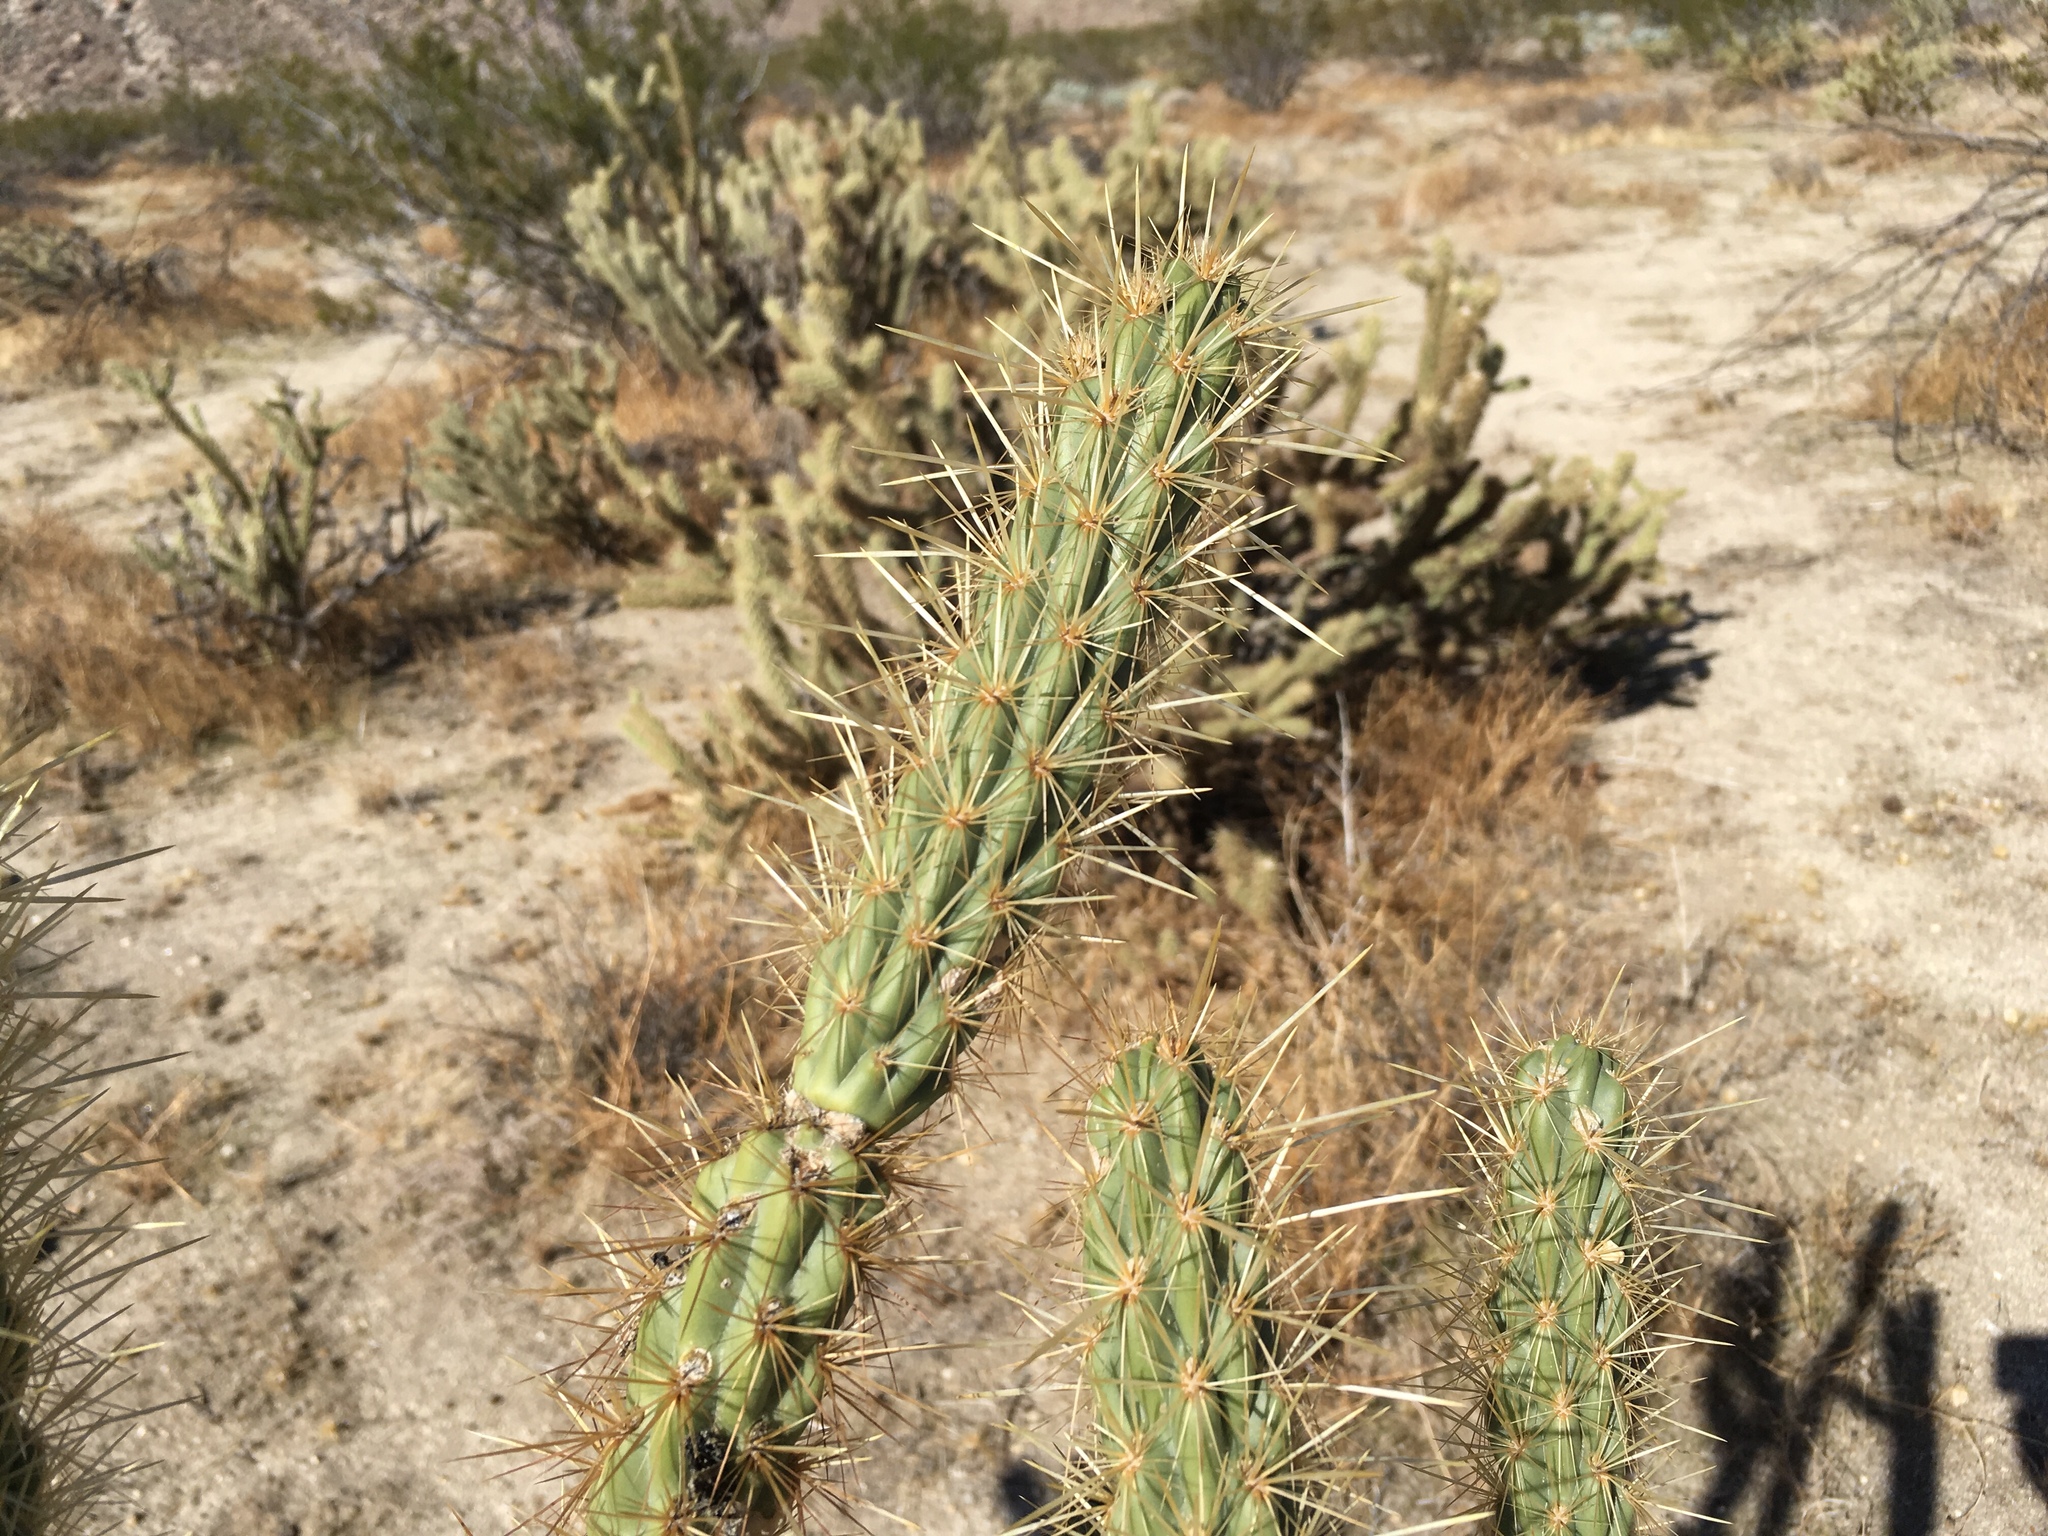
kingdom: Plantae
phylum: Tracheophyta
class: Magnoliopsida
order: Caryophyllales
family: Cactaceae
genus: Cylindropuntia
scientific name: Cylindropuntia ganderi
